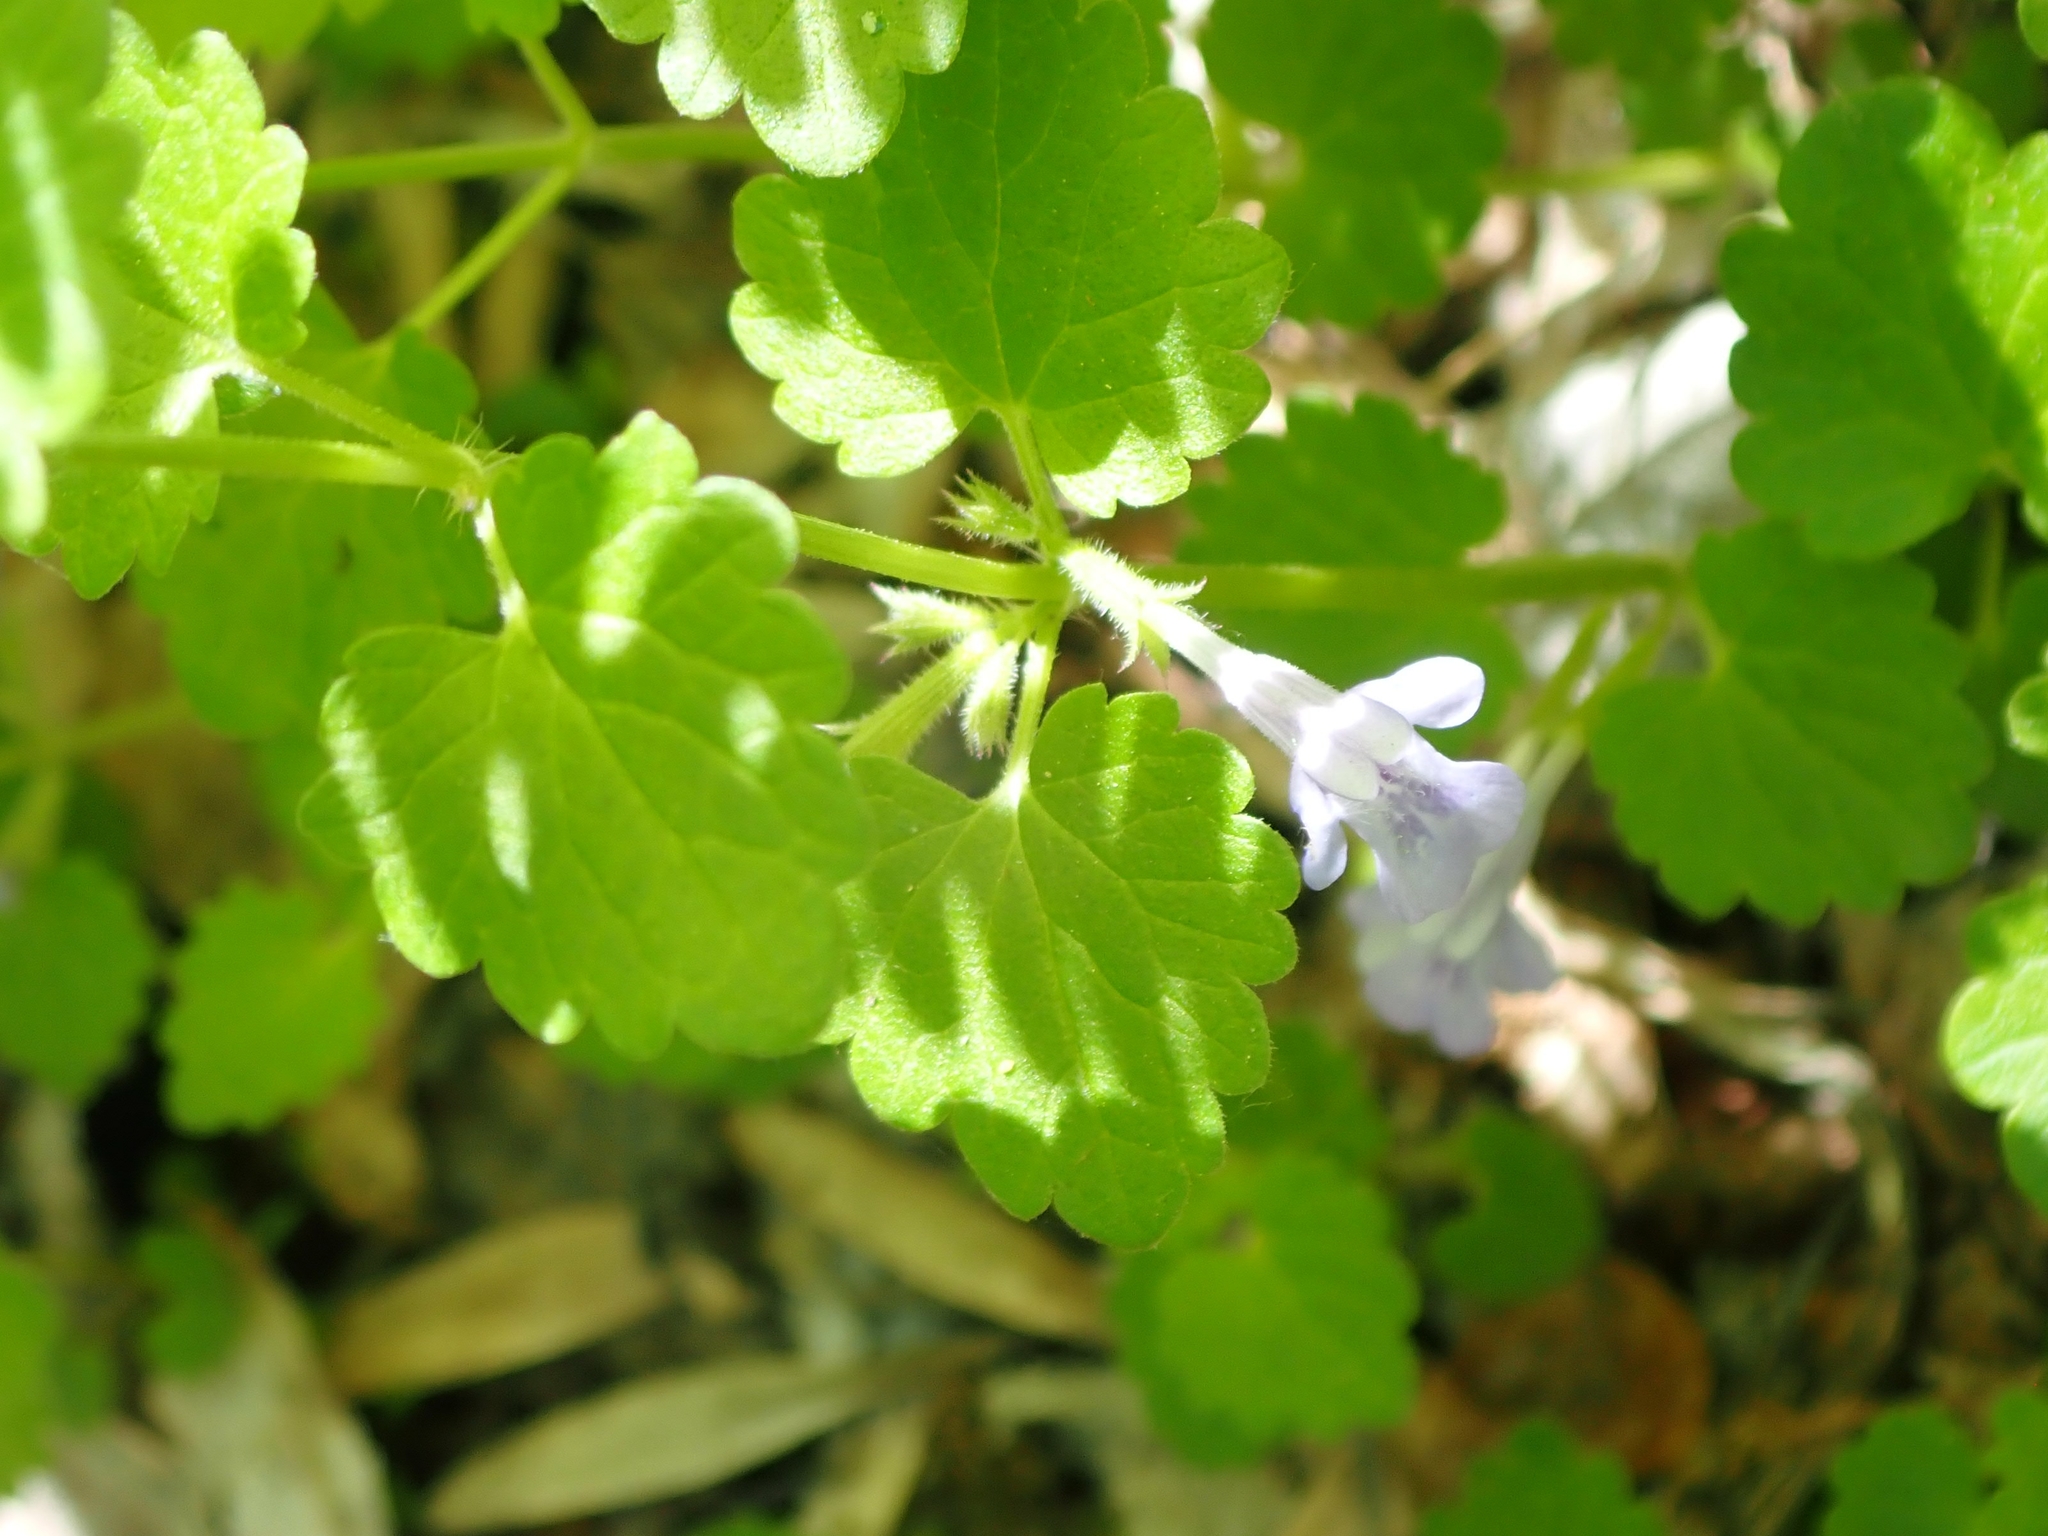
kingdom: Plantae
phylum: Tracheophyta
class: Magnoliopsida
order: Lamiales
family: Lamiaceae
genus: Glechoma
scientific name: Glechoma hederacea
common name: Ground ivy
